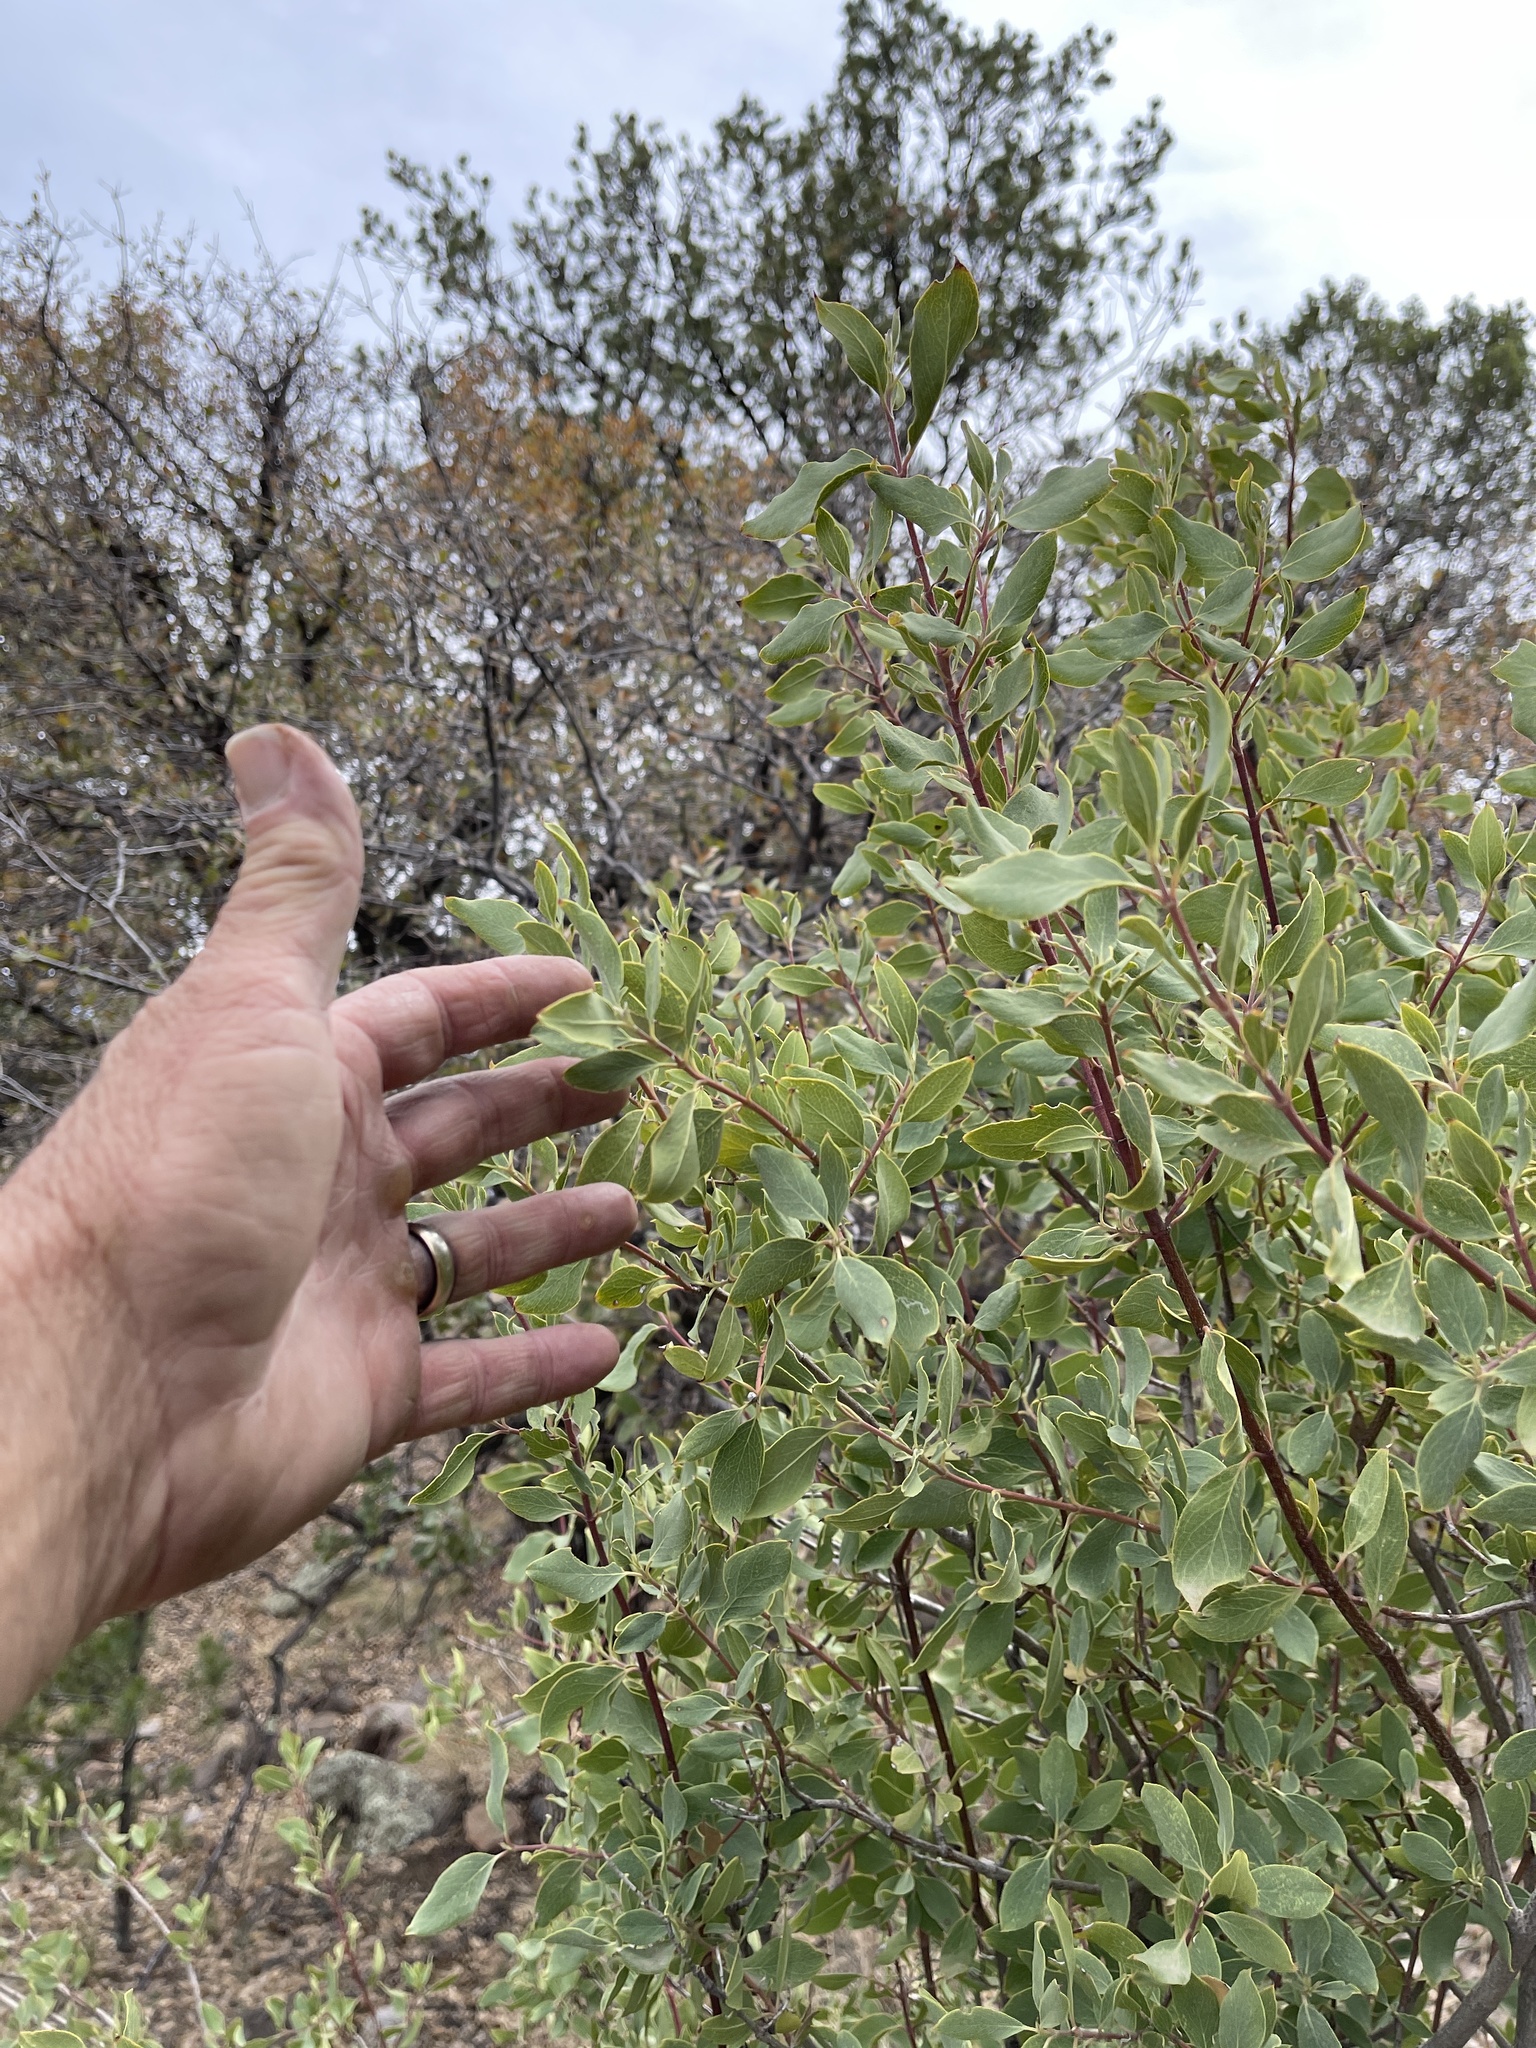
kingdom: Plantae
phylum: Tracheophyta
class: Magnoliopsida
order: Garryales
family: Garryaceae
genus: Garrya
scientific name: Garrya wrightii
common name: Wright's silktassel
